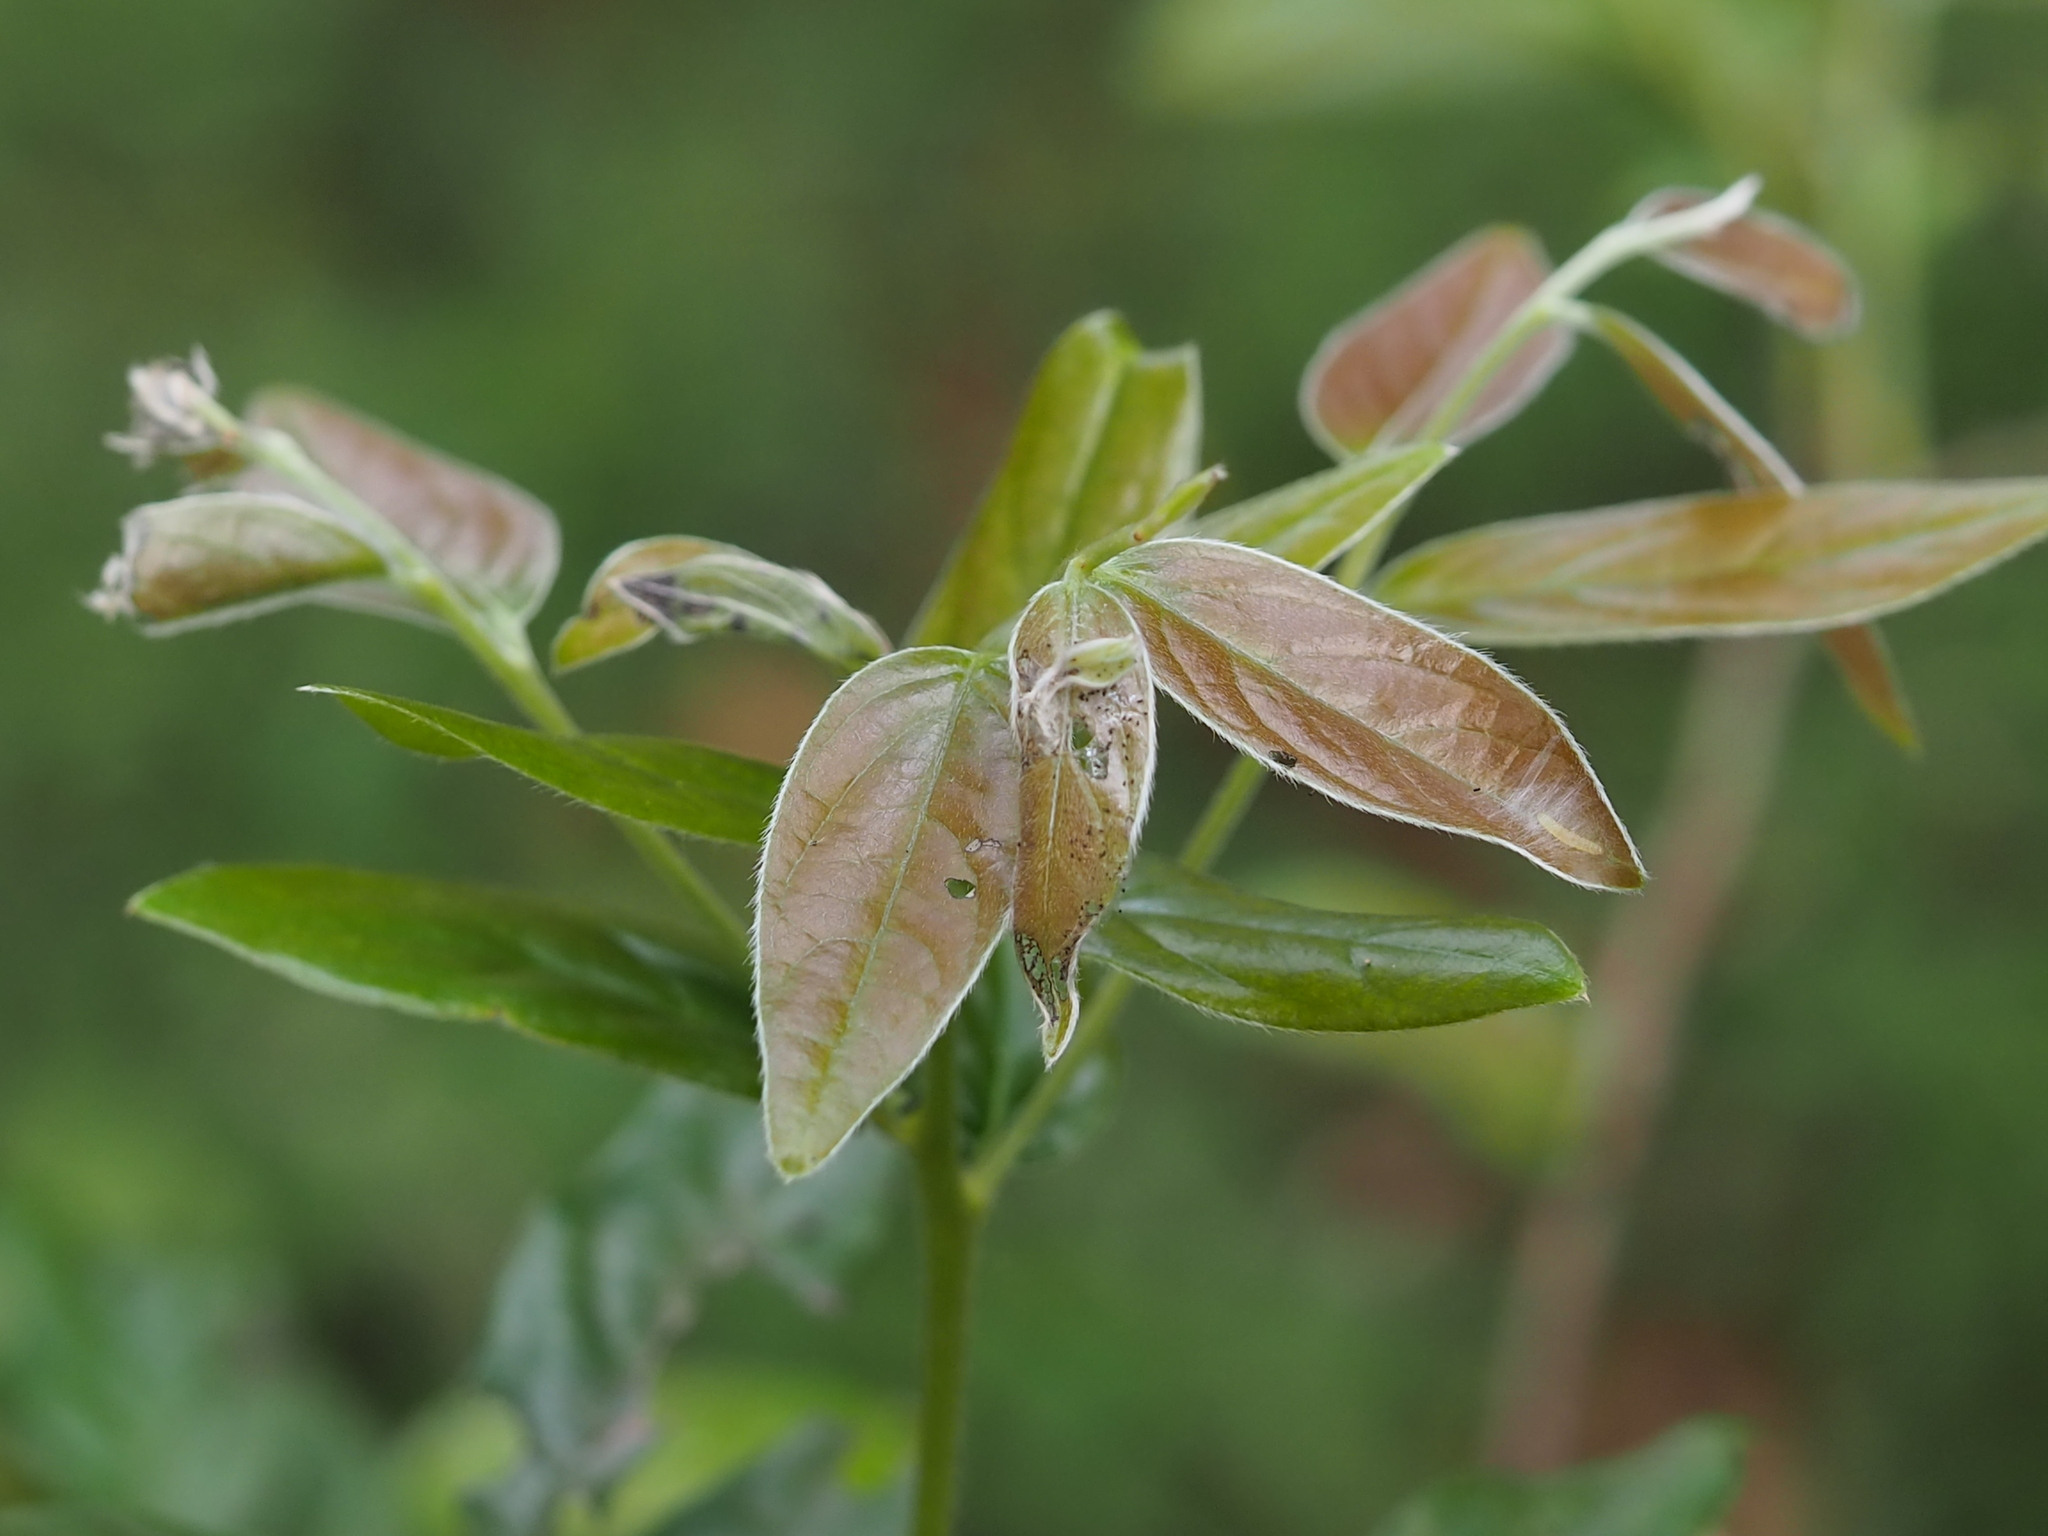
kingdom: Plantae
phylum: Tracheophyta
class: Magnoliopsida
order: Ericales
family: Ebenaceae
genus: Diospyros
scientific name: Diospyros eriantha
